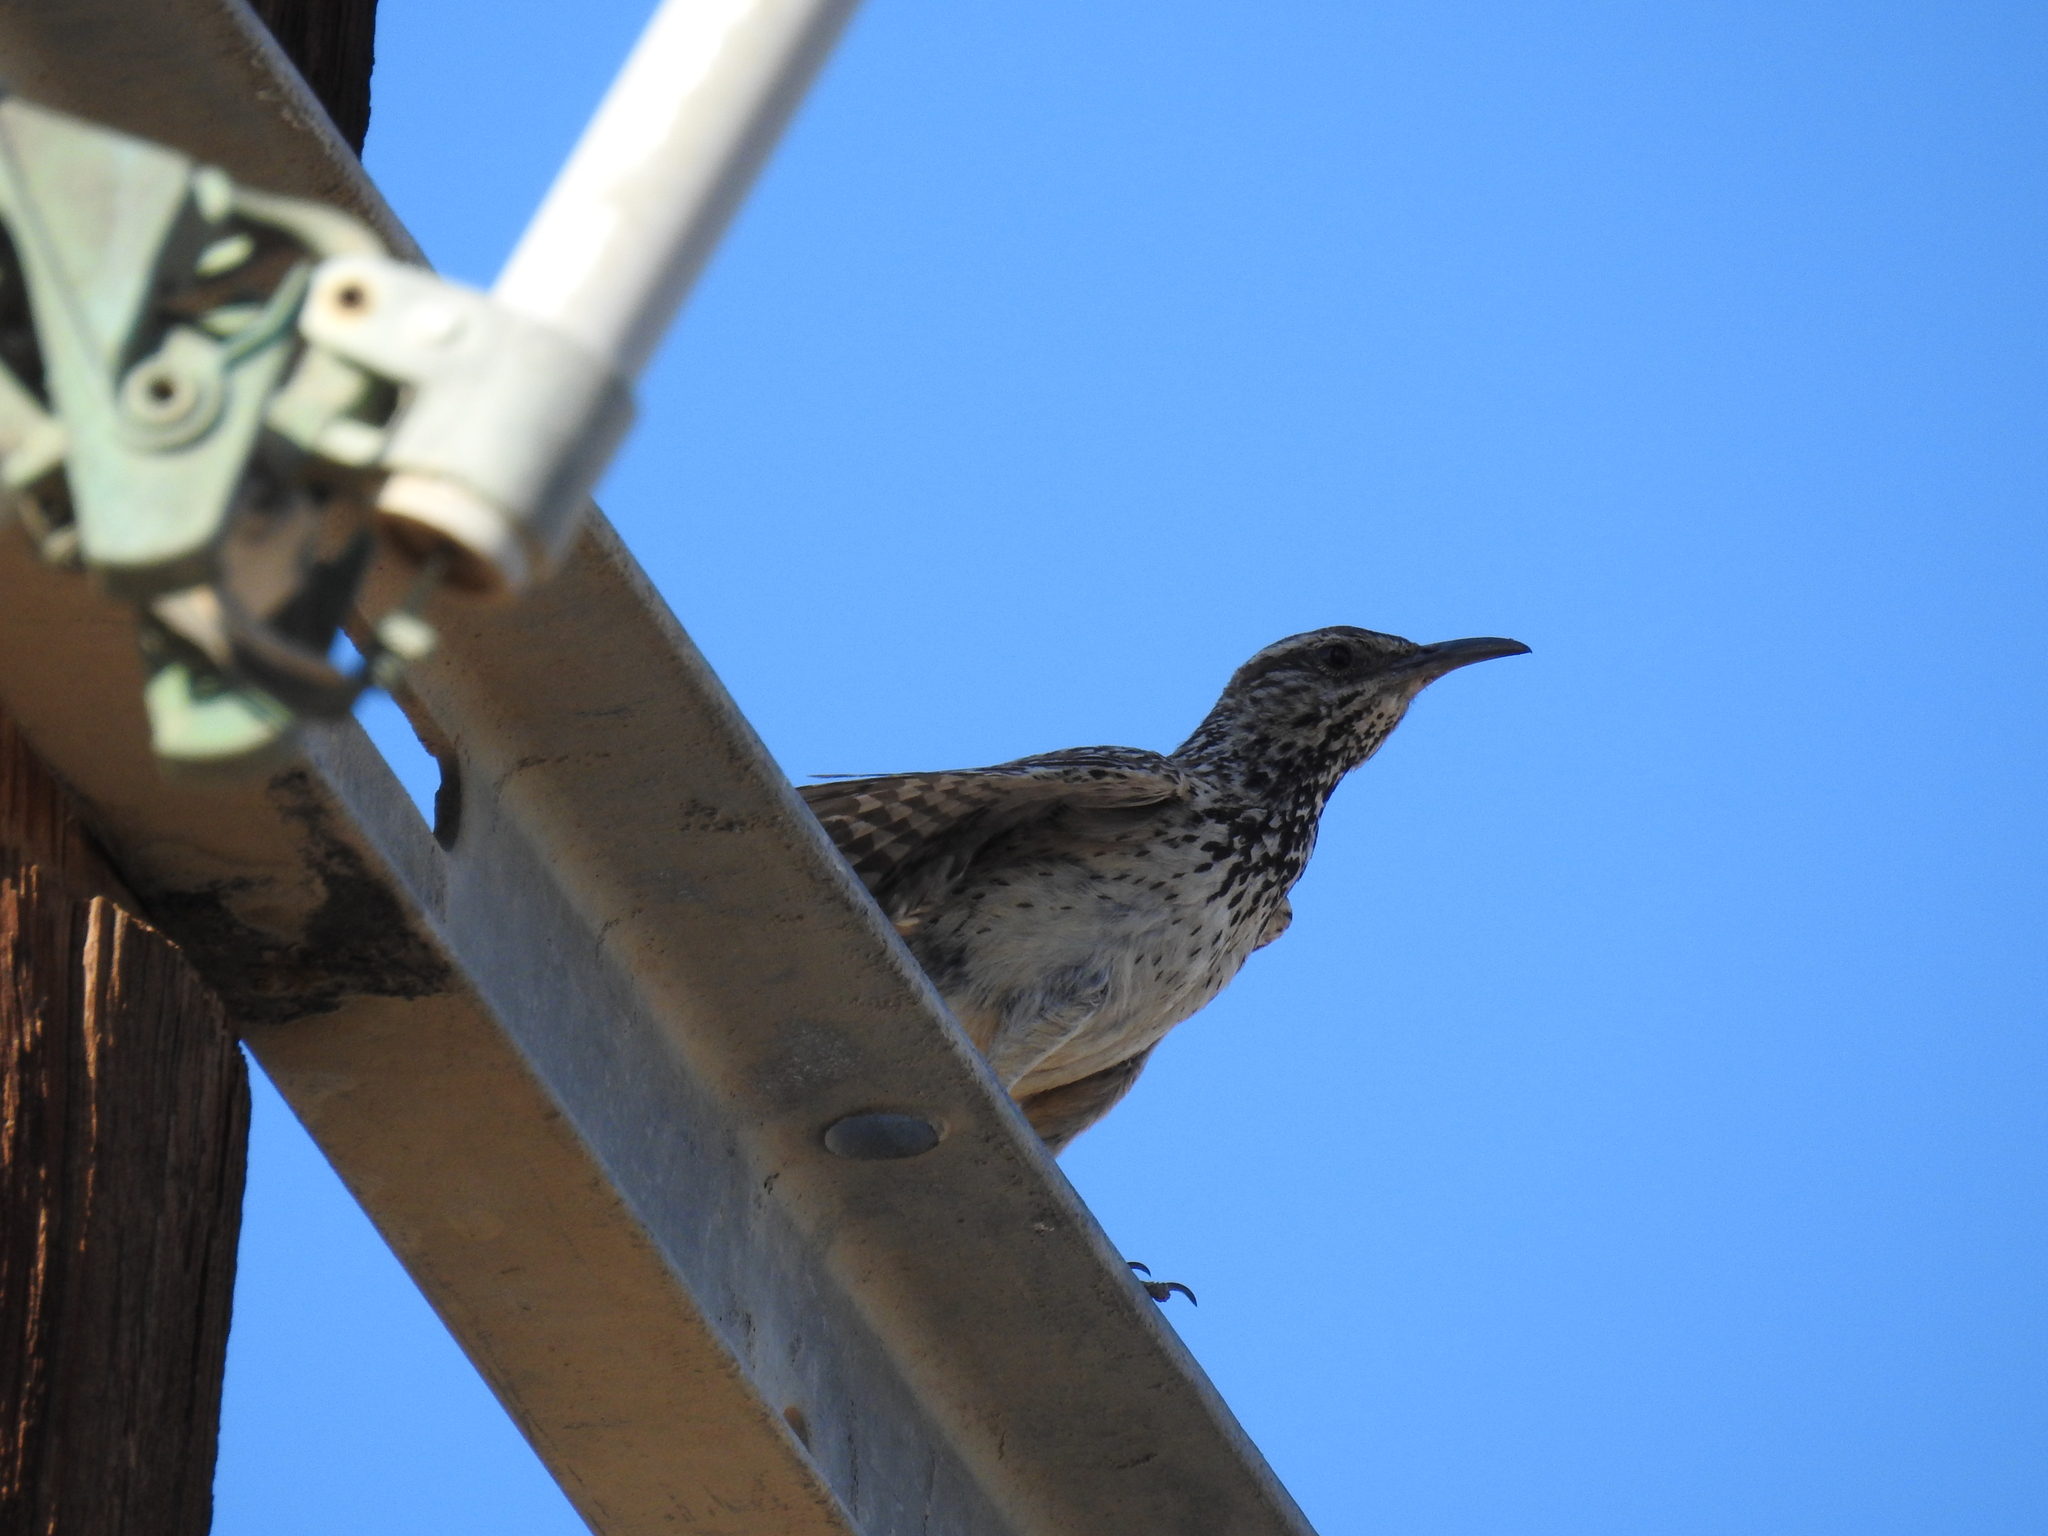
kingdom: Animalia
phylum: Chordata
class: Aves
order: Passeriformes
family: Troglodytidae
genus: Campylorhynchus
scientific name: Campylorhynchus brunneicapillus
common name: Cactus wren
